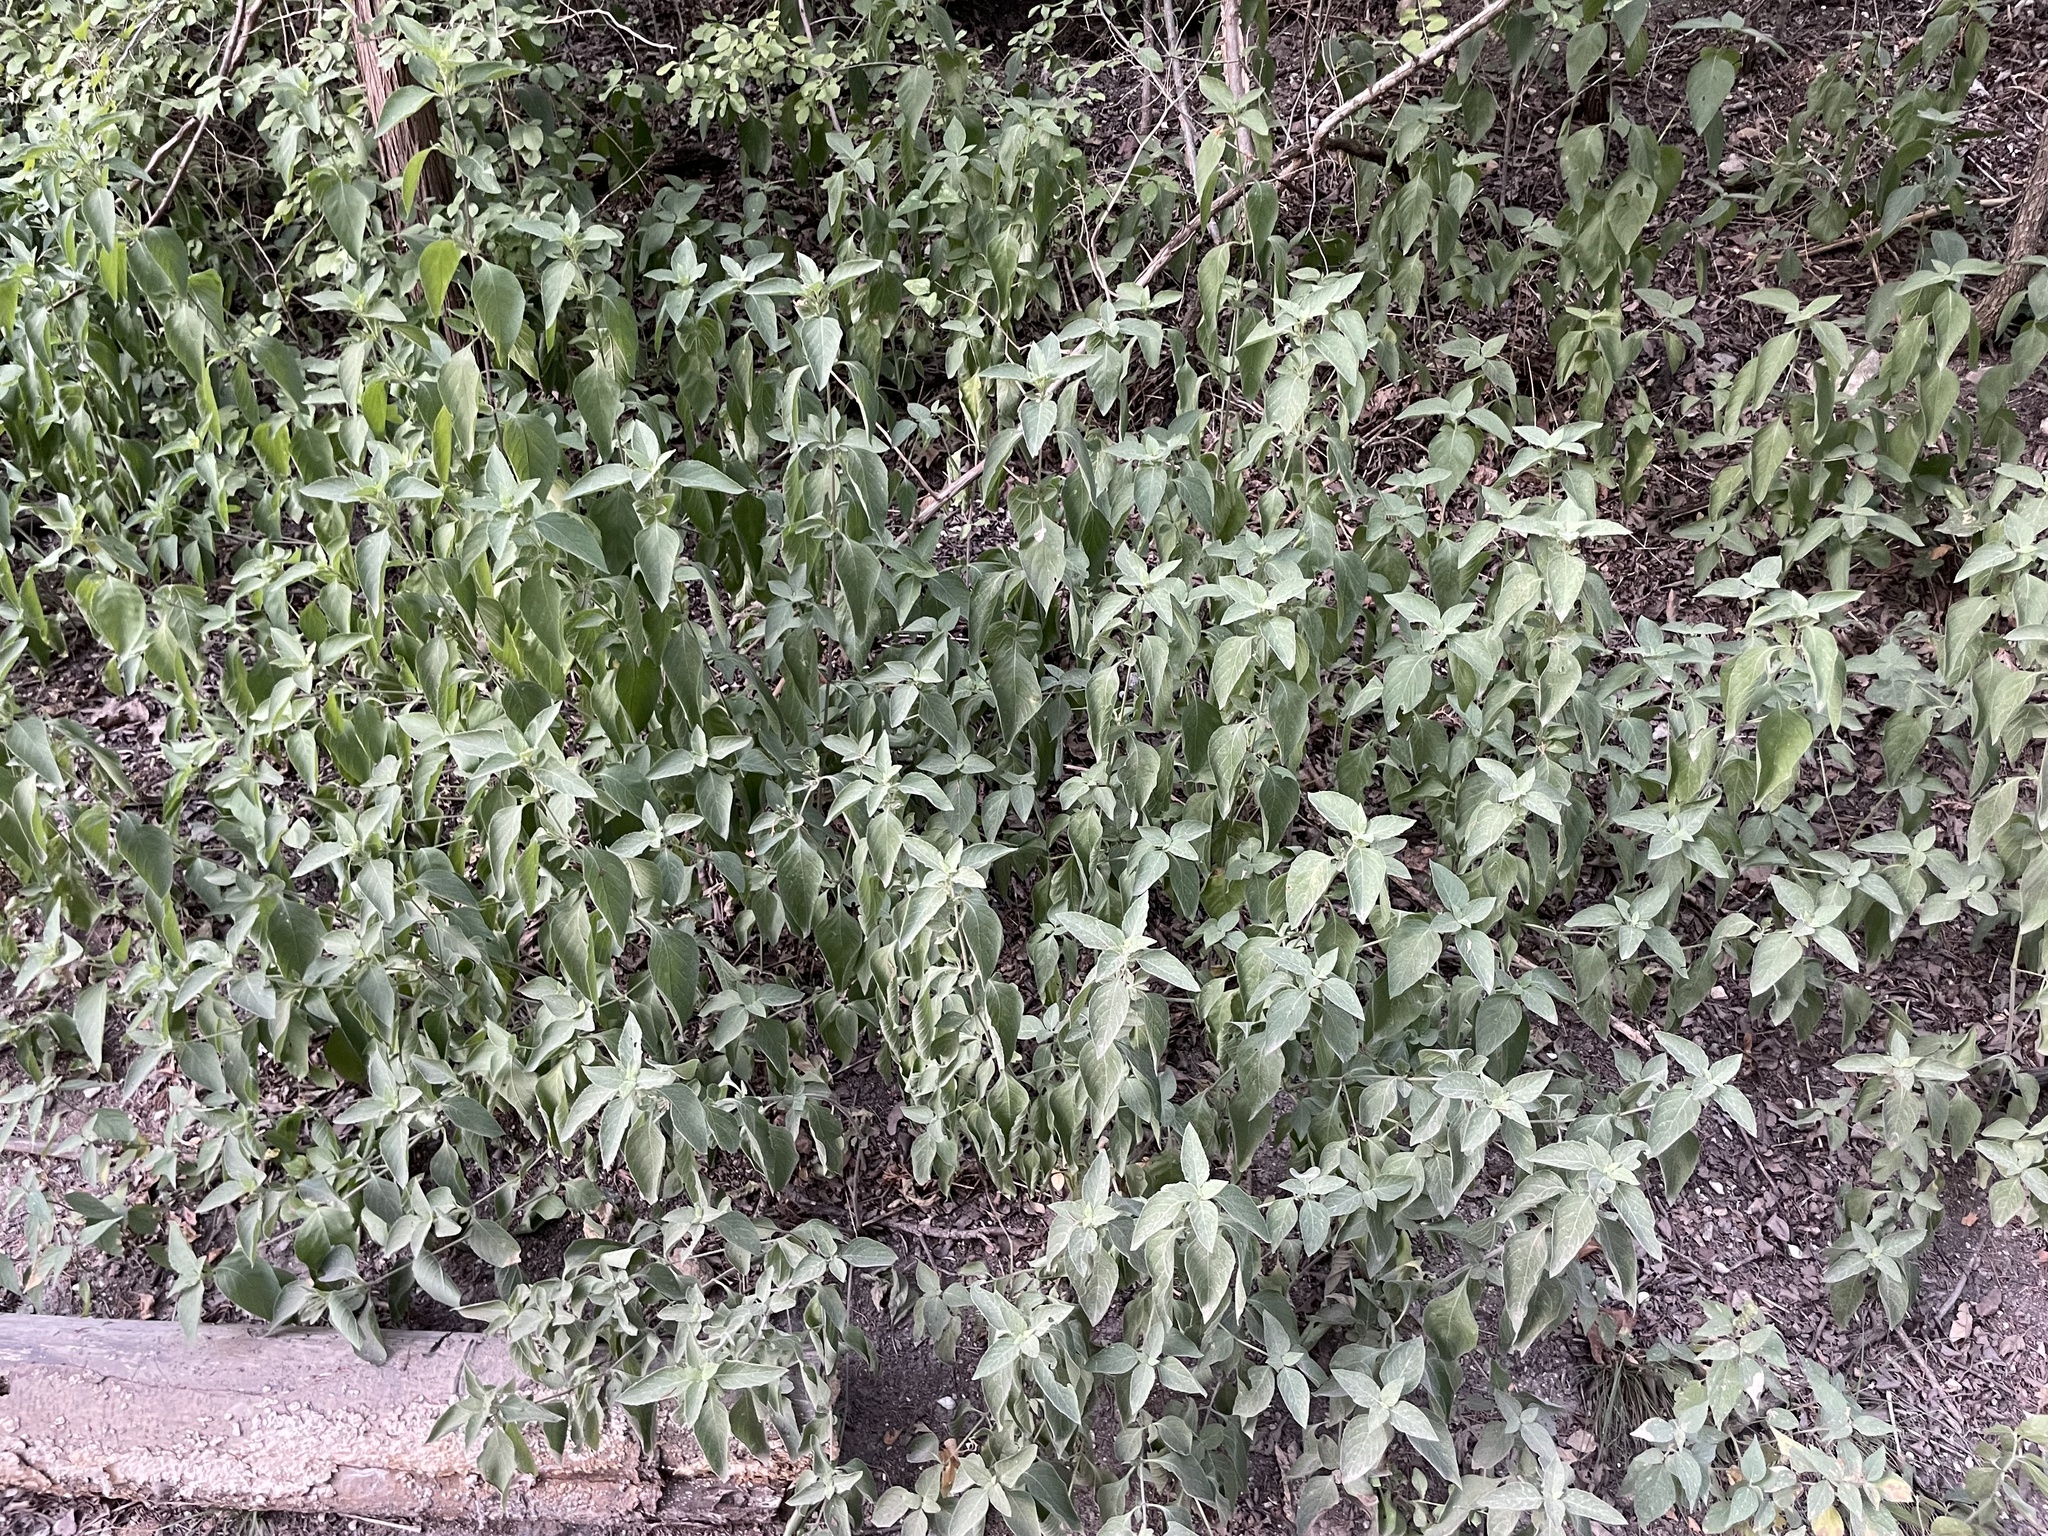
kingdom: Plantae
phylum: Tracheophyta
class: Magnoliopsida
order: Lamiales
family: Acanthaceae
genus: Ruellia
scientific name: Ruellia drummondiana
